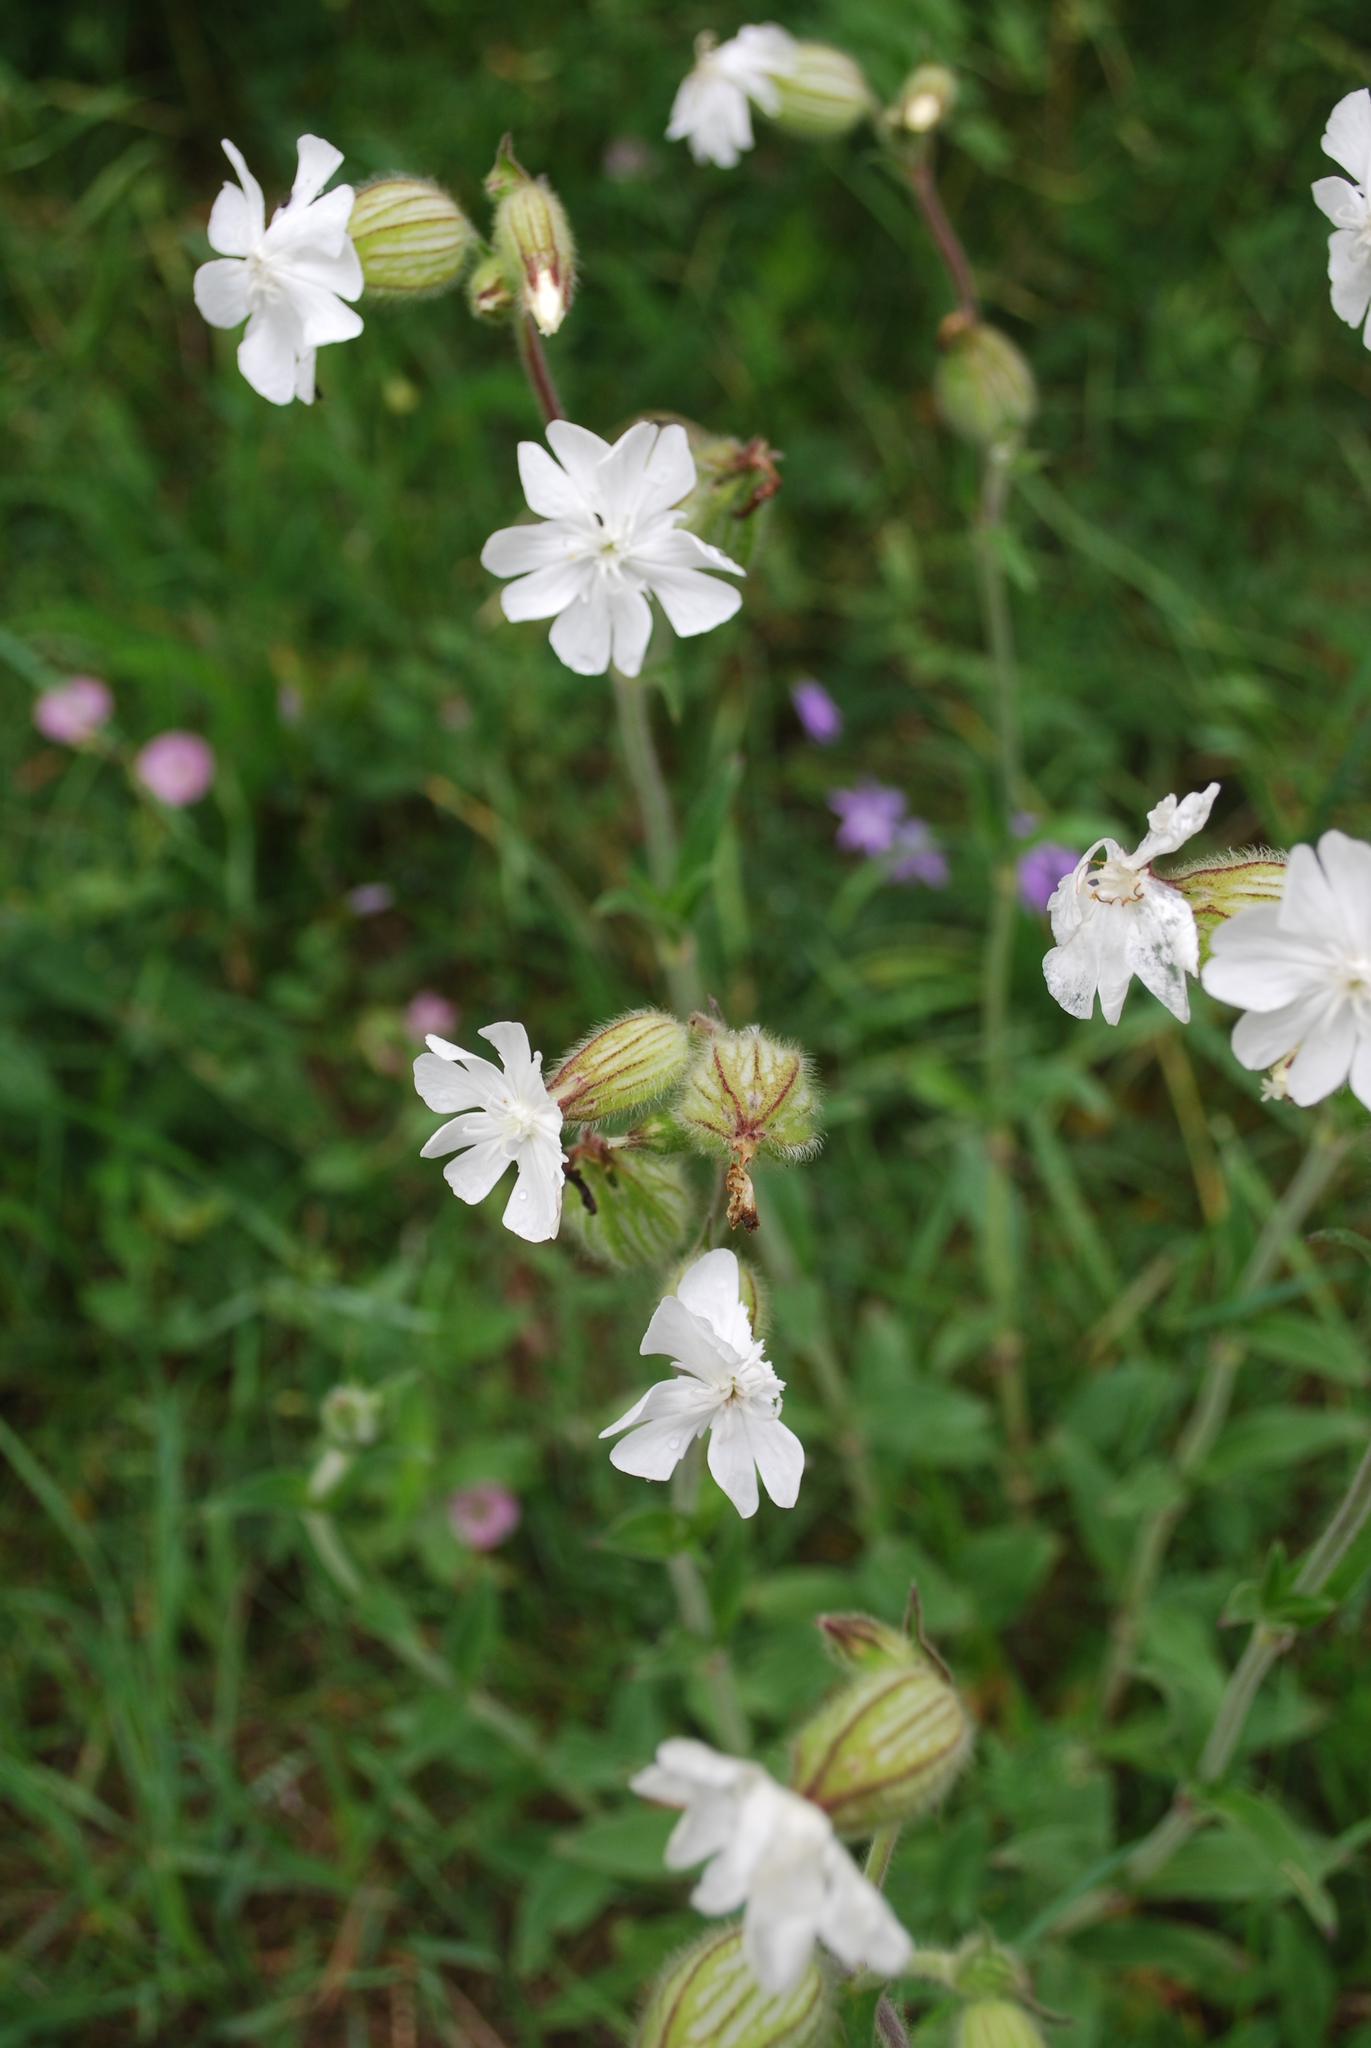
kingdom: Plantae
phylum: Tracheophyta
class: Magnoliopsida
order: Caryophyllales
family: Caryophyllaceae
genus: Silene
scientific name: Silene latifolia
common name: White campion
